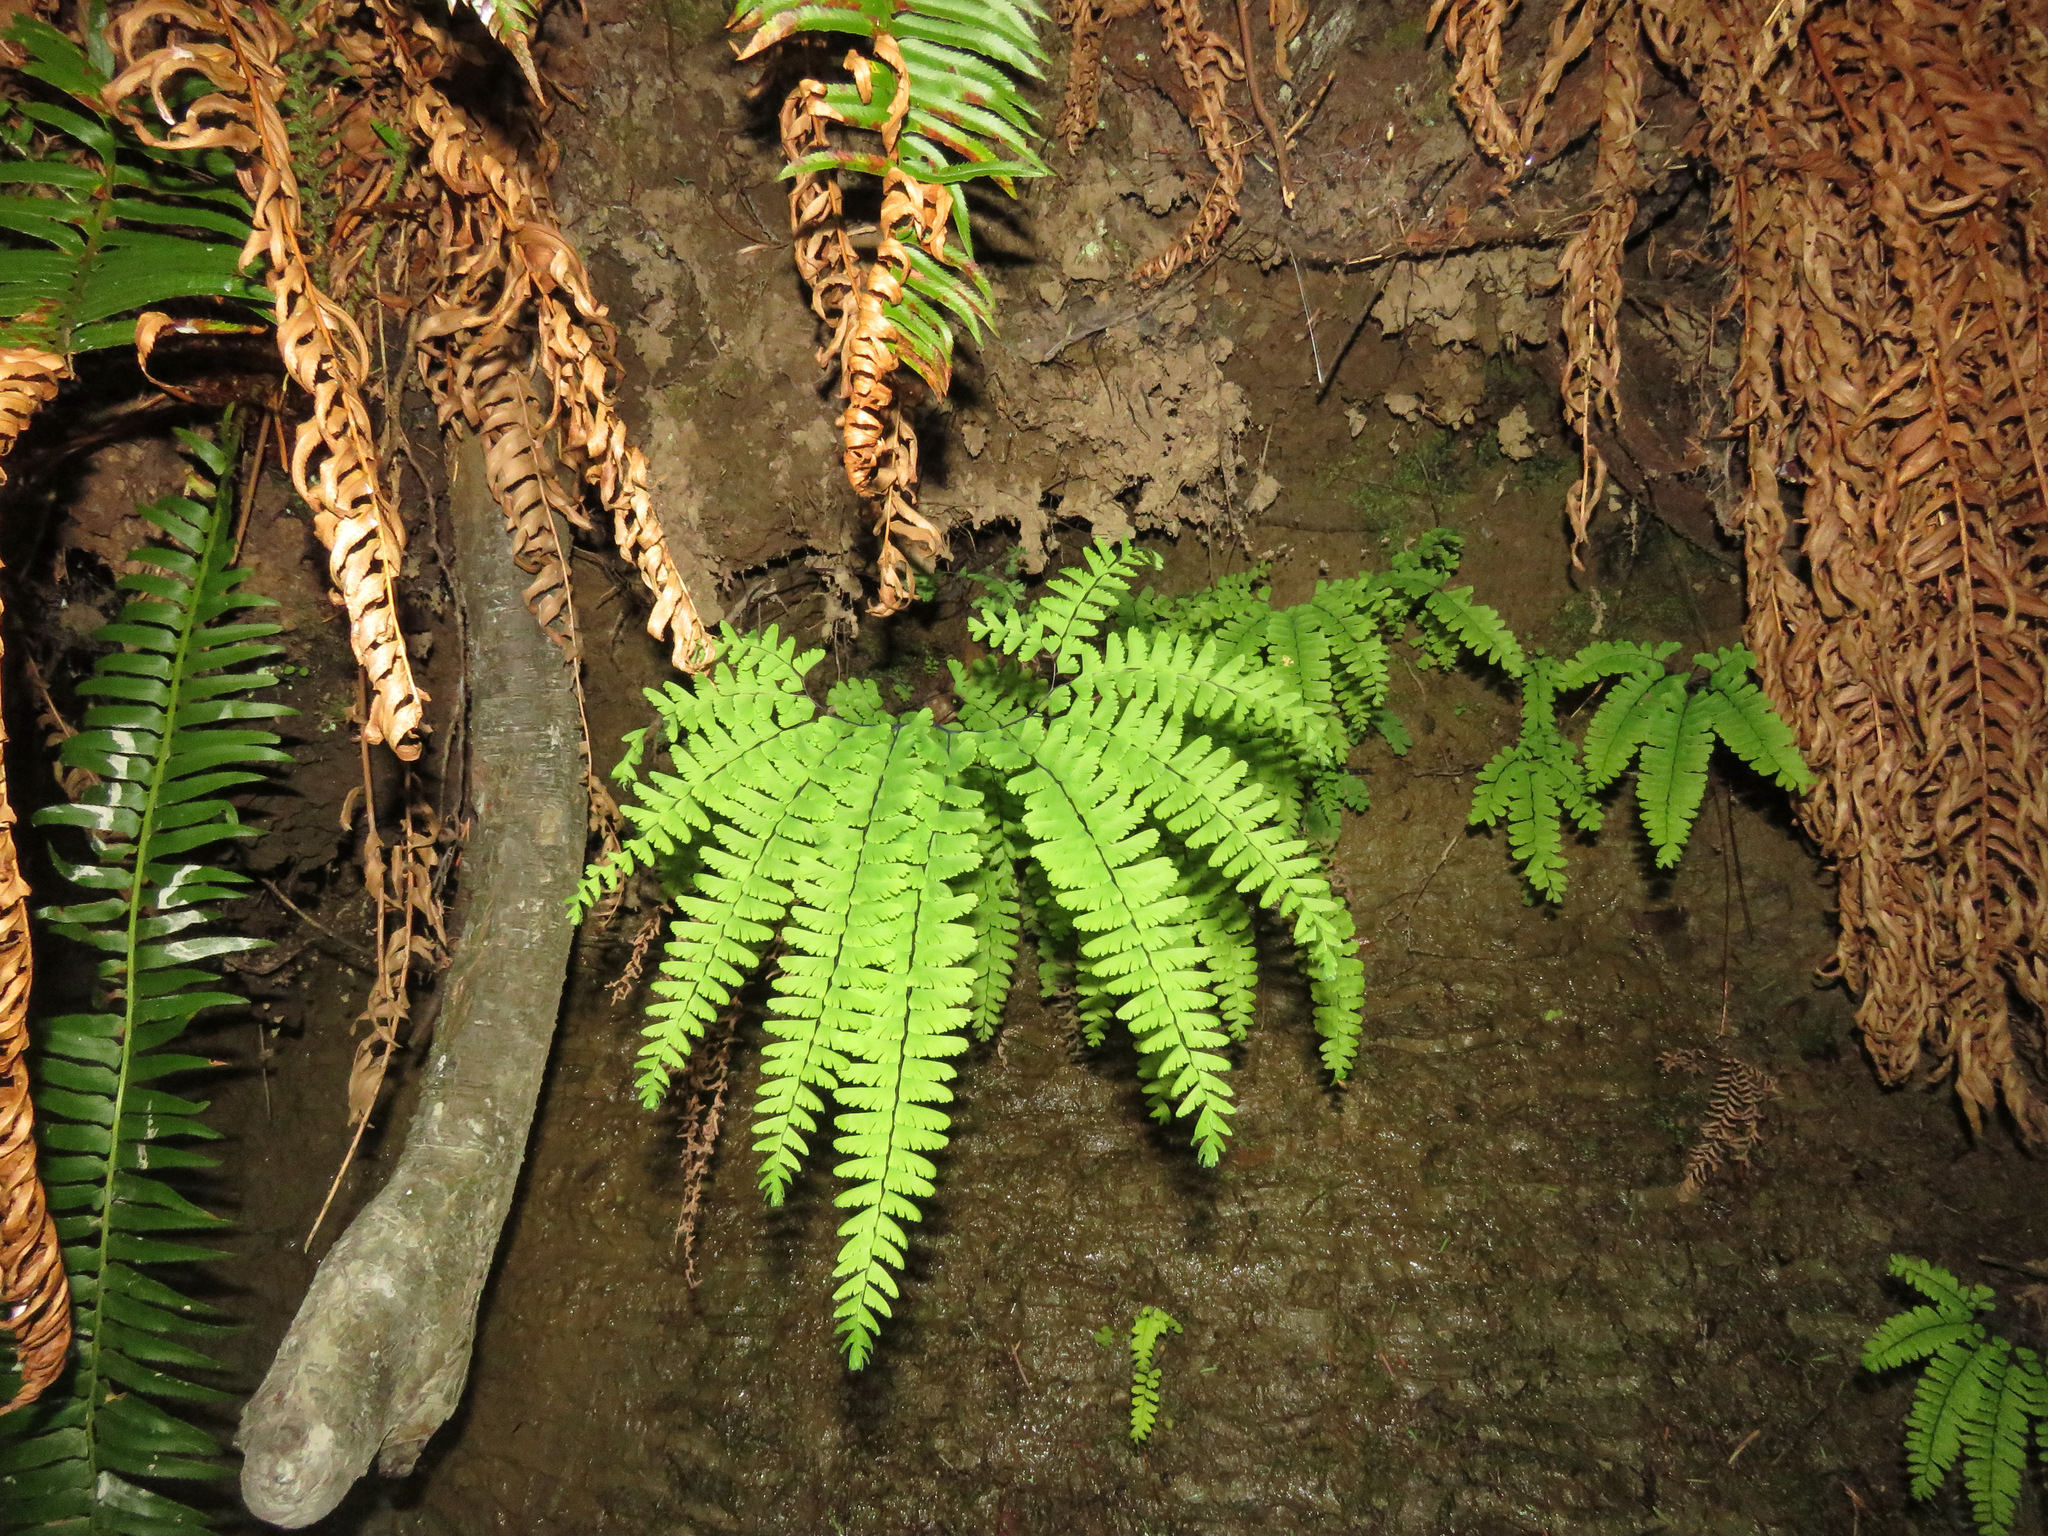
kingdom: Plantae
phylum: Tracheophyta
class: Polypodiopsida
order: Polypodiales
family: Pteridaceae
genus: Adiantum
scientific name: Adiantum aleuticum
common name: Aleutian maidenhair fern
